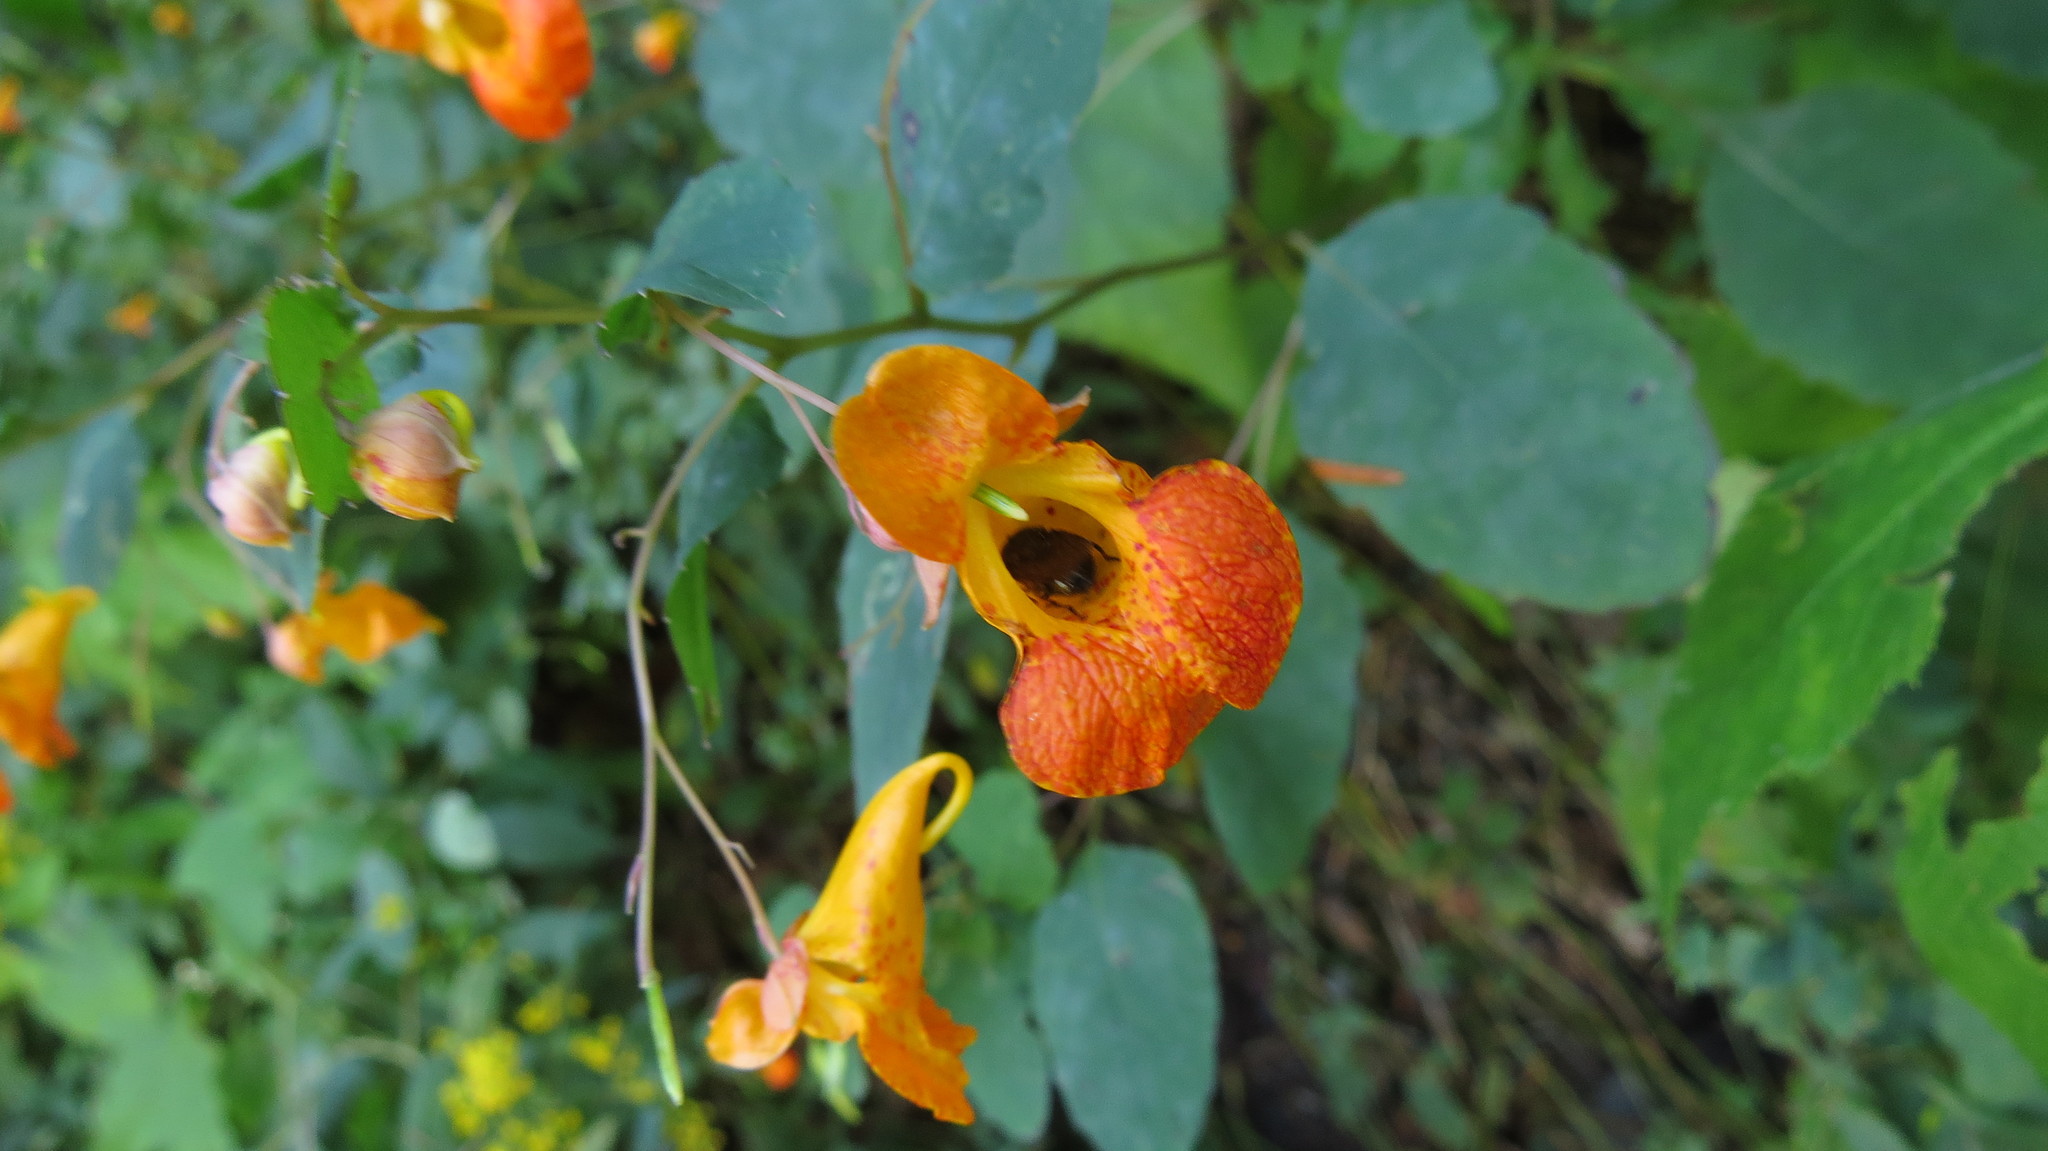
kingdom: Plantae
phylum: Tracheophyta
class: Magnoliopsida
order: Ericales
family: Balsaminaceae
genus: Impatiens
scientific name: Impatiens capensis
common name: Orange balsam
